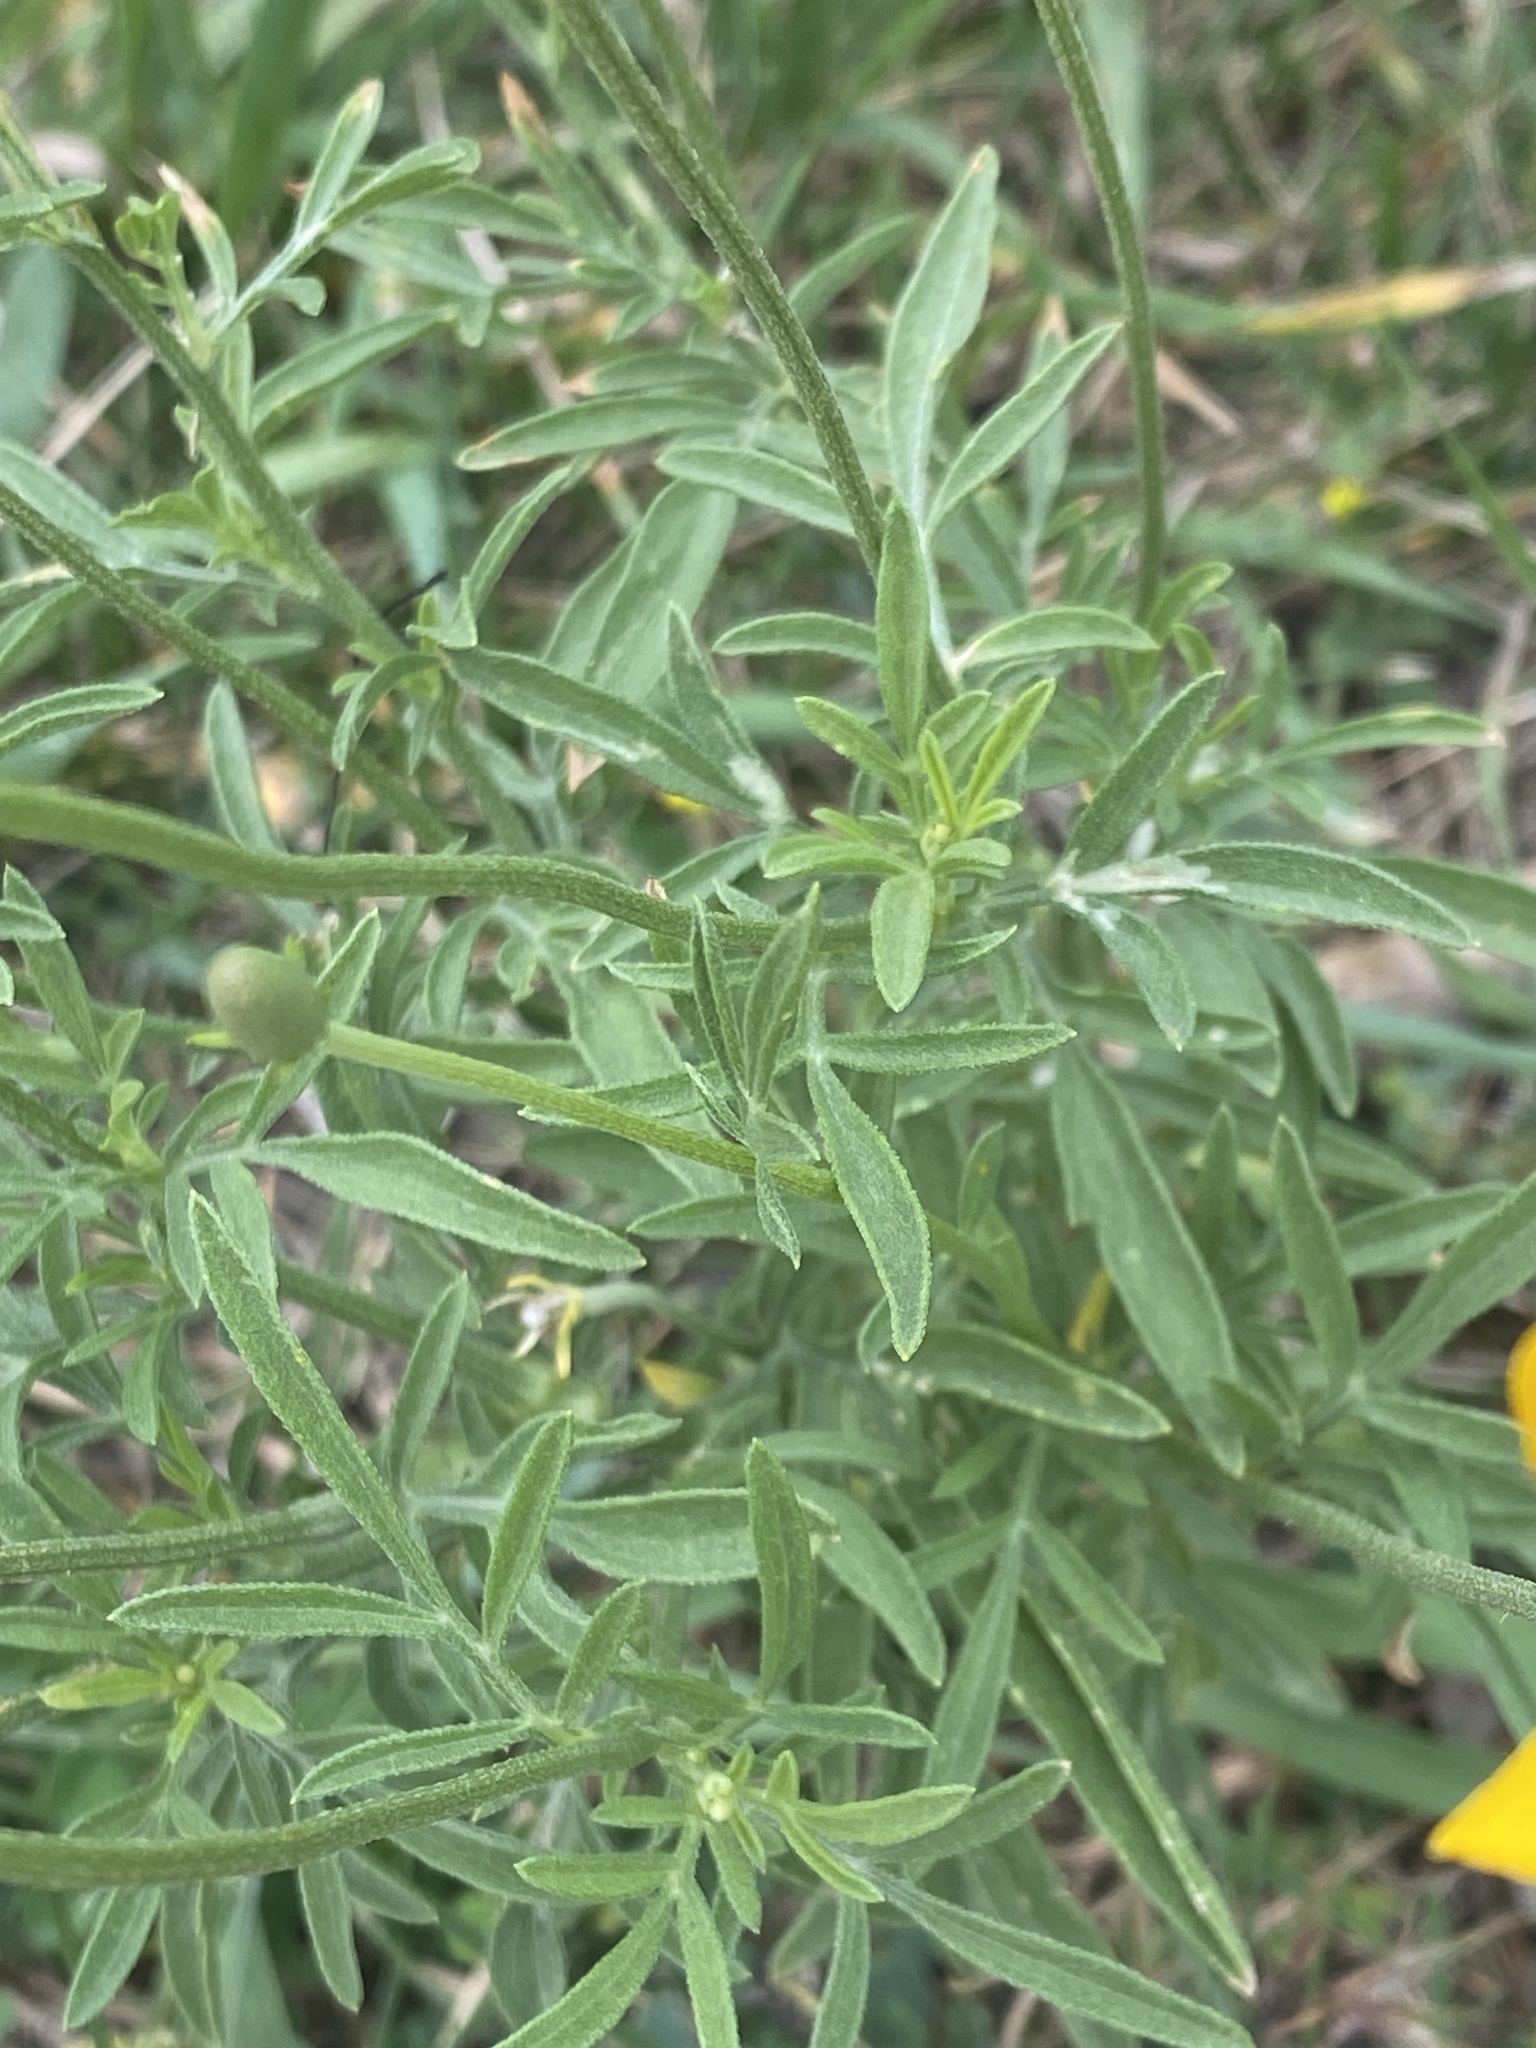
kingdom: Plantae
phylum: Tracheophyta
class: Magnoliopsida
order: Asterales
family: Asteraceae
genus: Ratibida
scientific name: Ratibida columnifera
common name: Prairie coneflower
